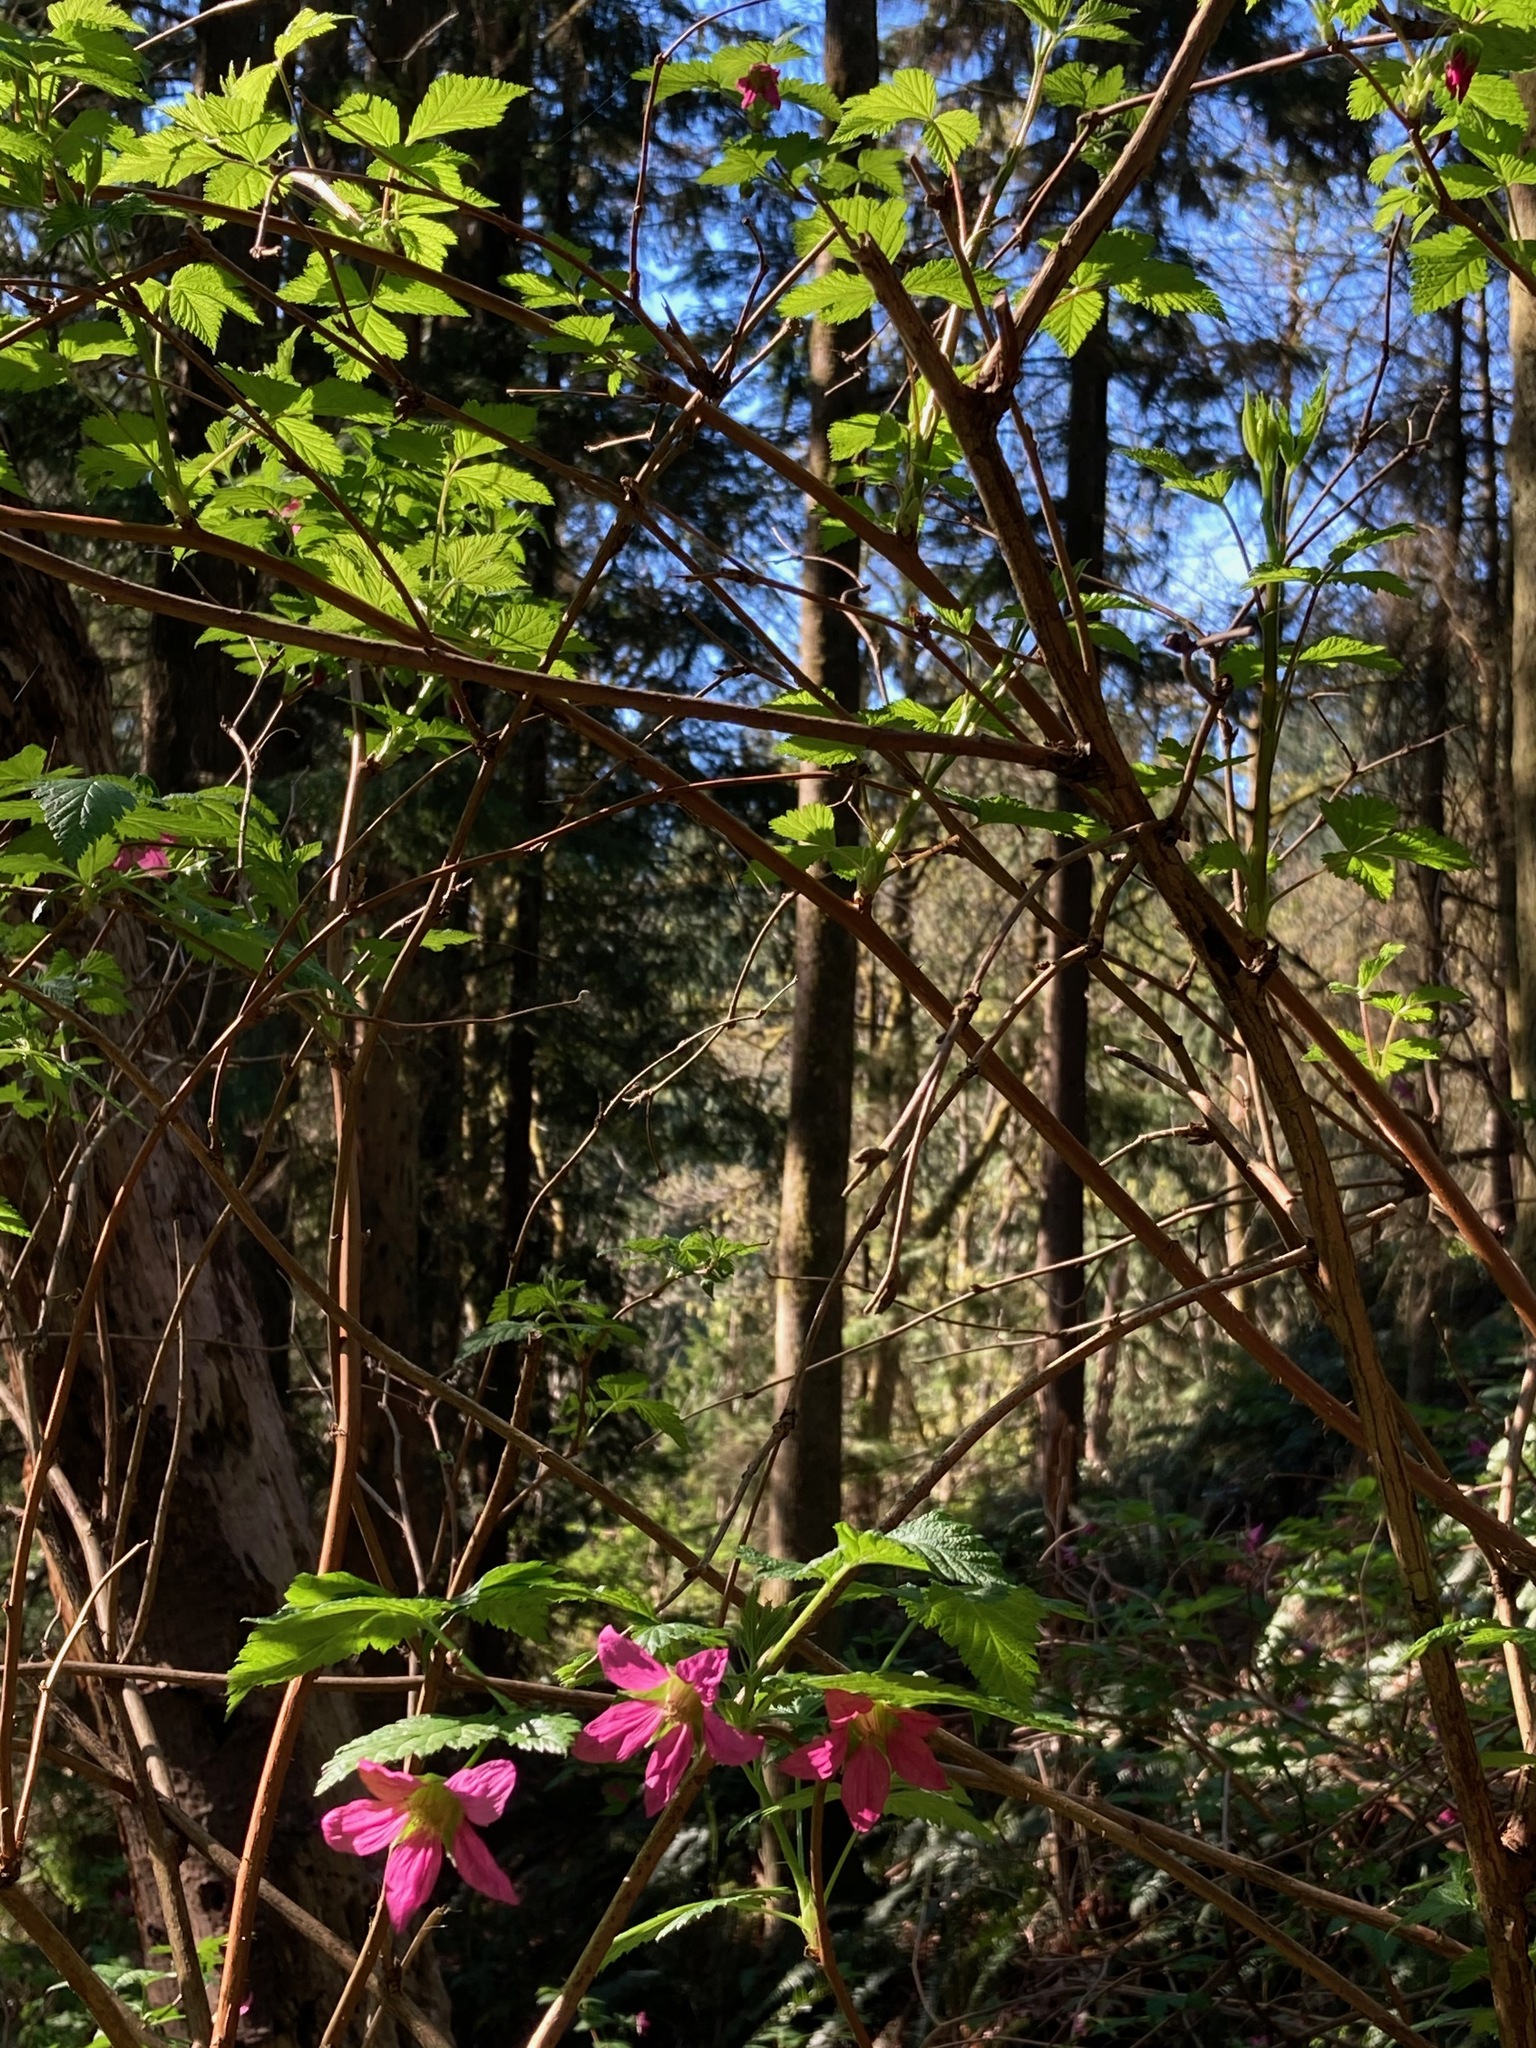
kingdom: Plantae
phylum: Tracheophyta
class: Magnoliopsida
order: Rosales
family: Rosaceae
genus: Rubus
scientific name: Rubus spectabilis
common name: Salmonberry
